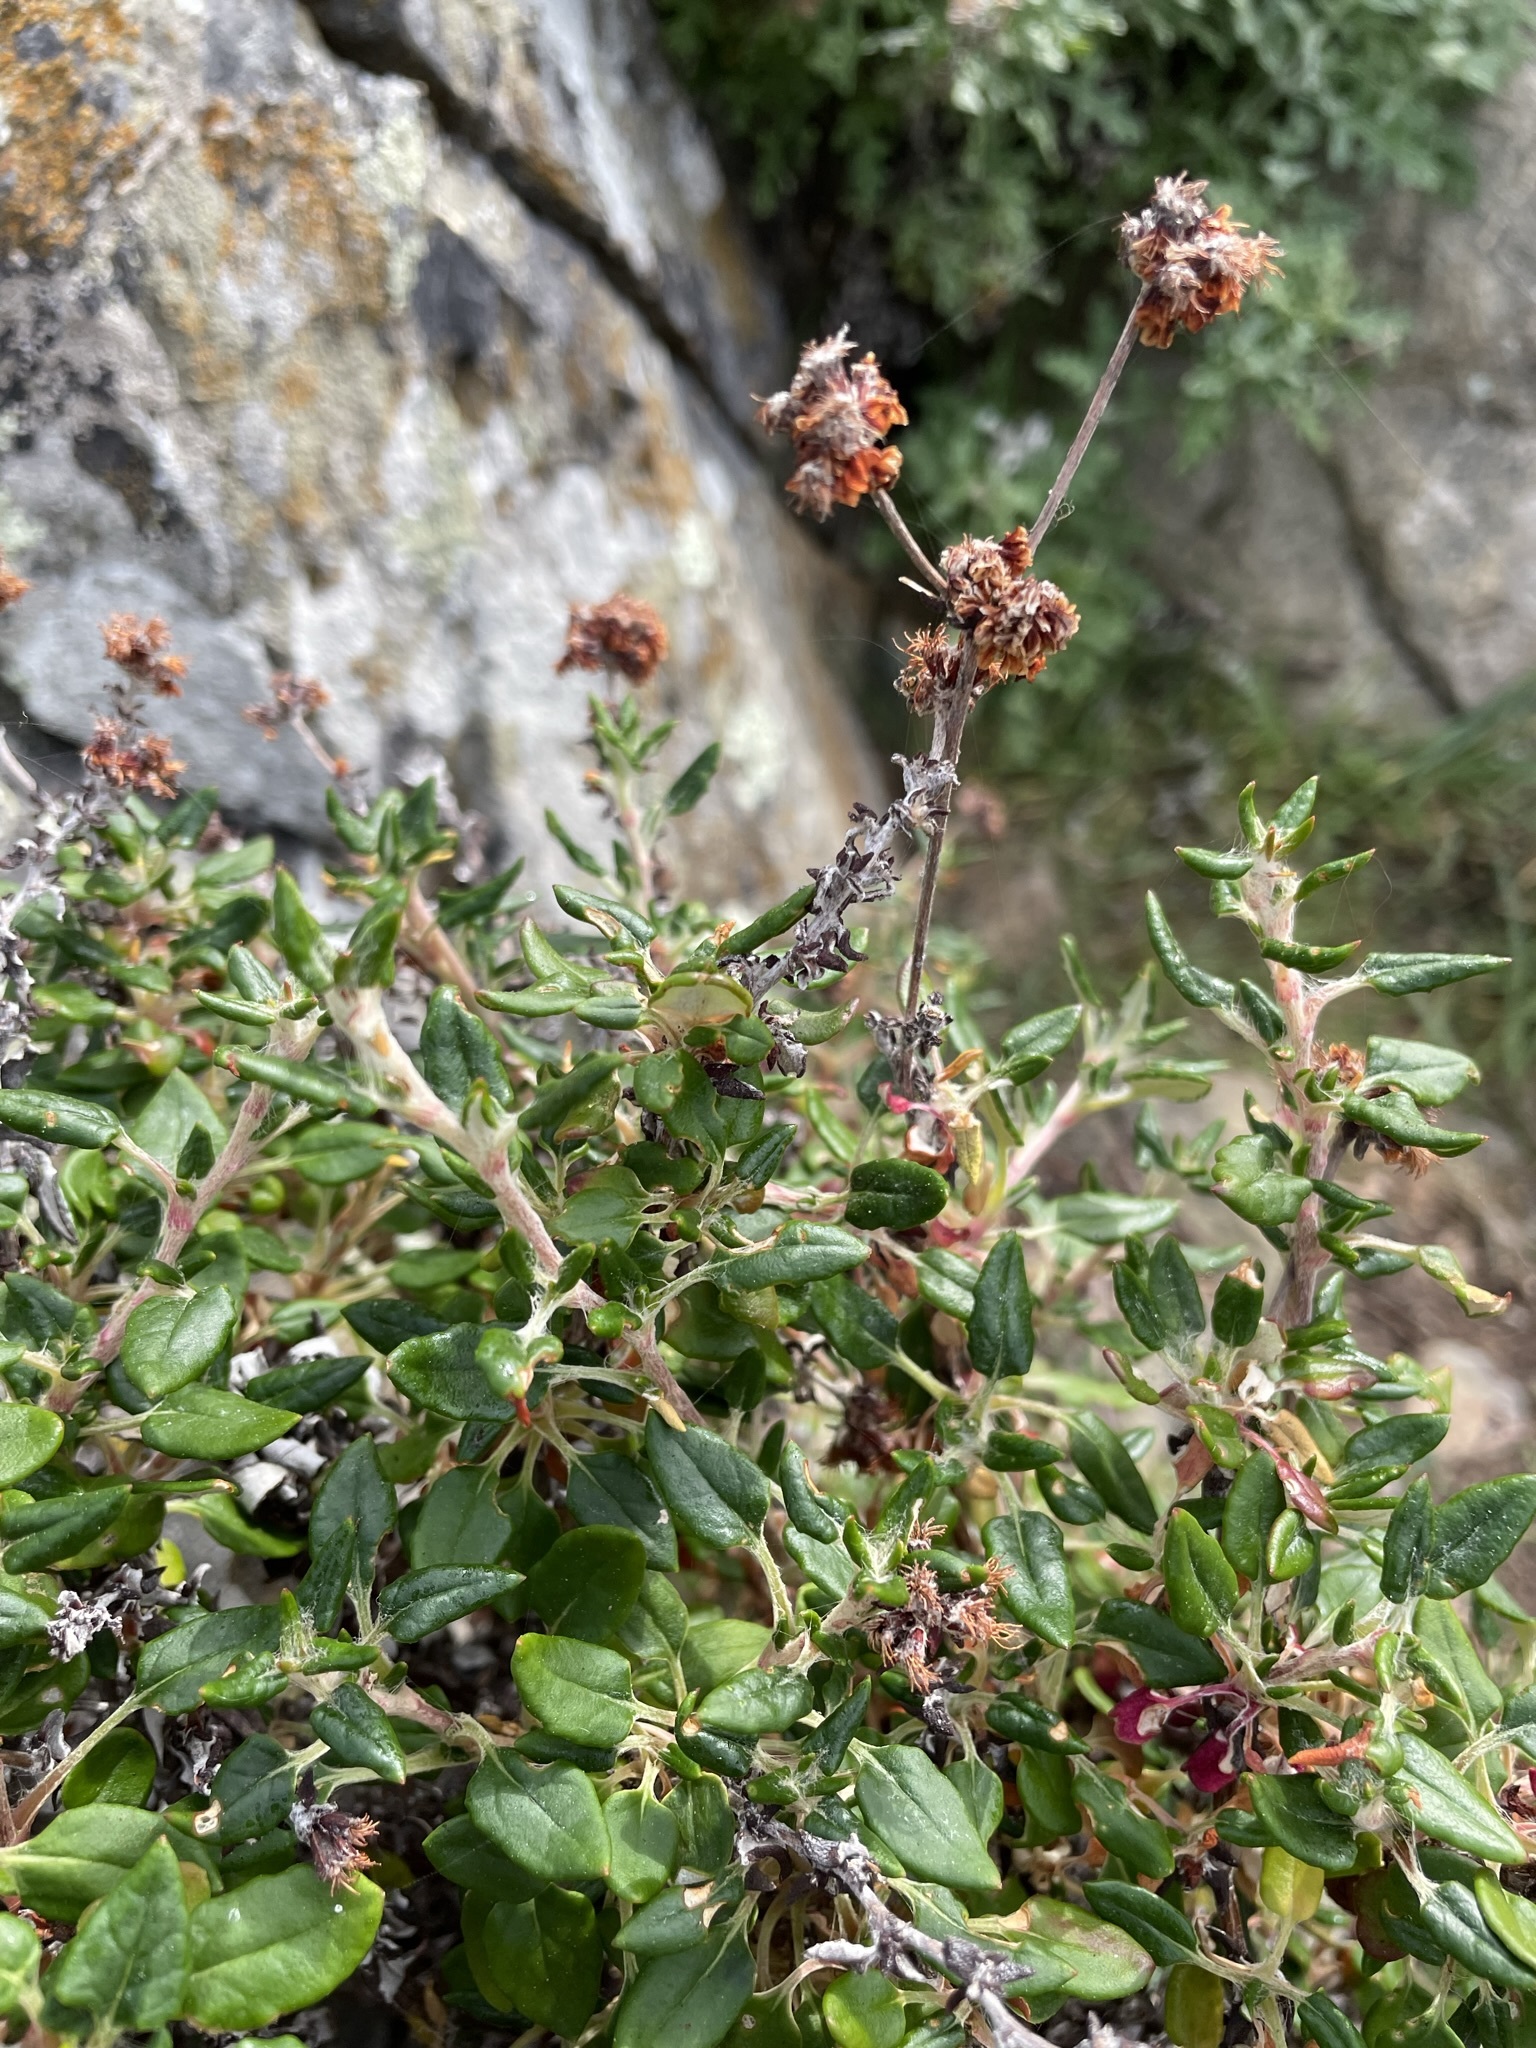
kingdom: Plantae
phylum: Tracheophyta
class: Magnoliopsida
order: Caryophyllales
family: Polygonaceae
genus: Eriogonum
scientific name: Eriogonum parvifolium
